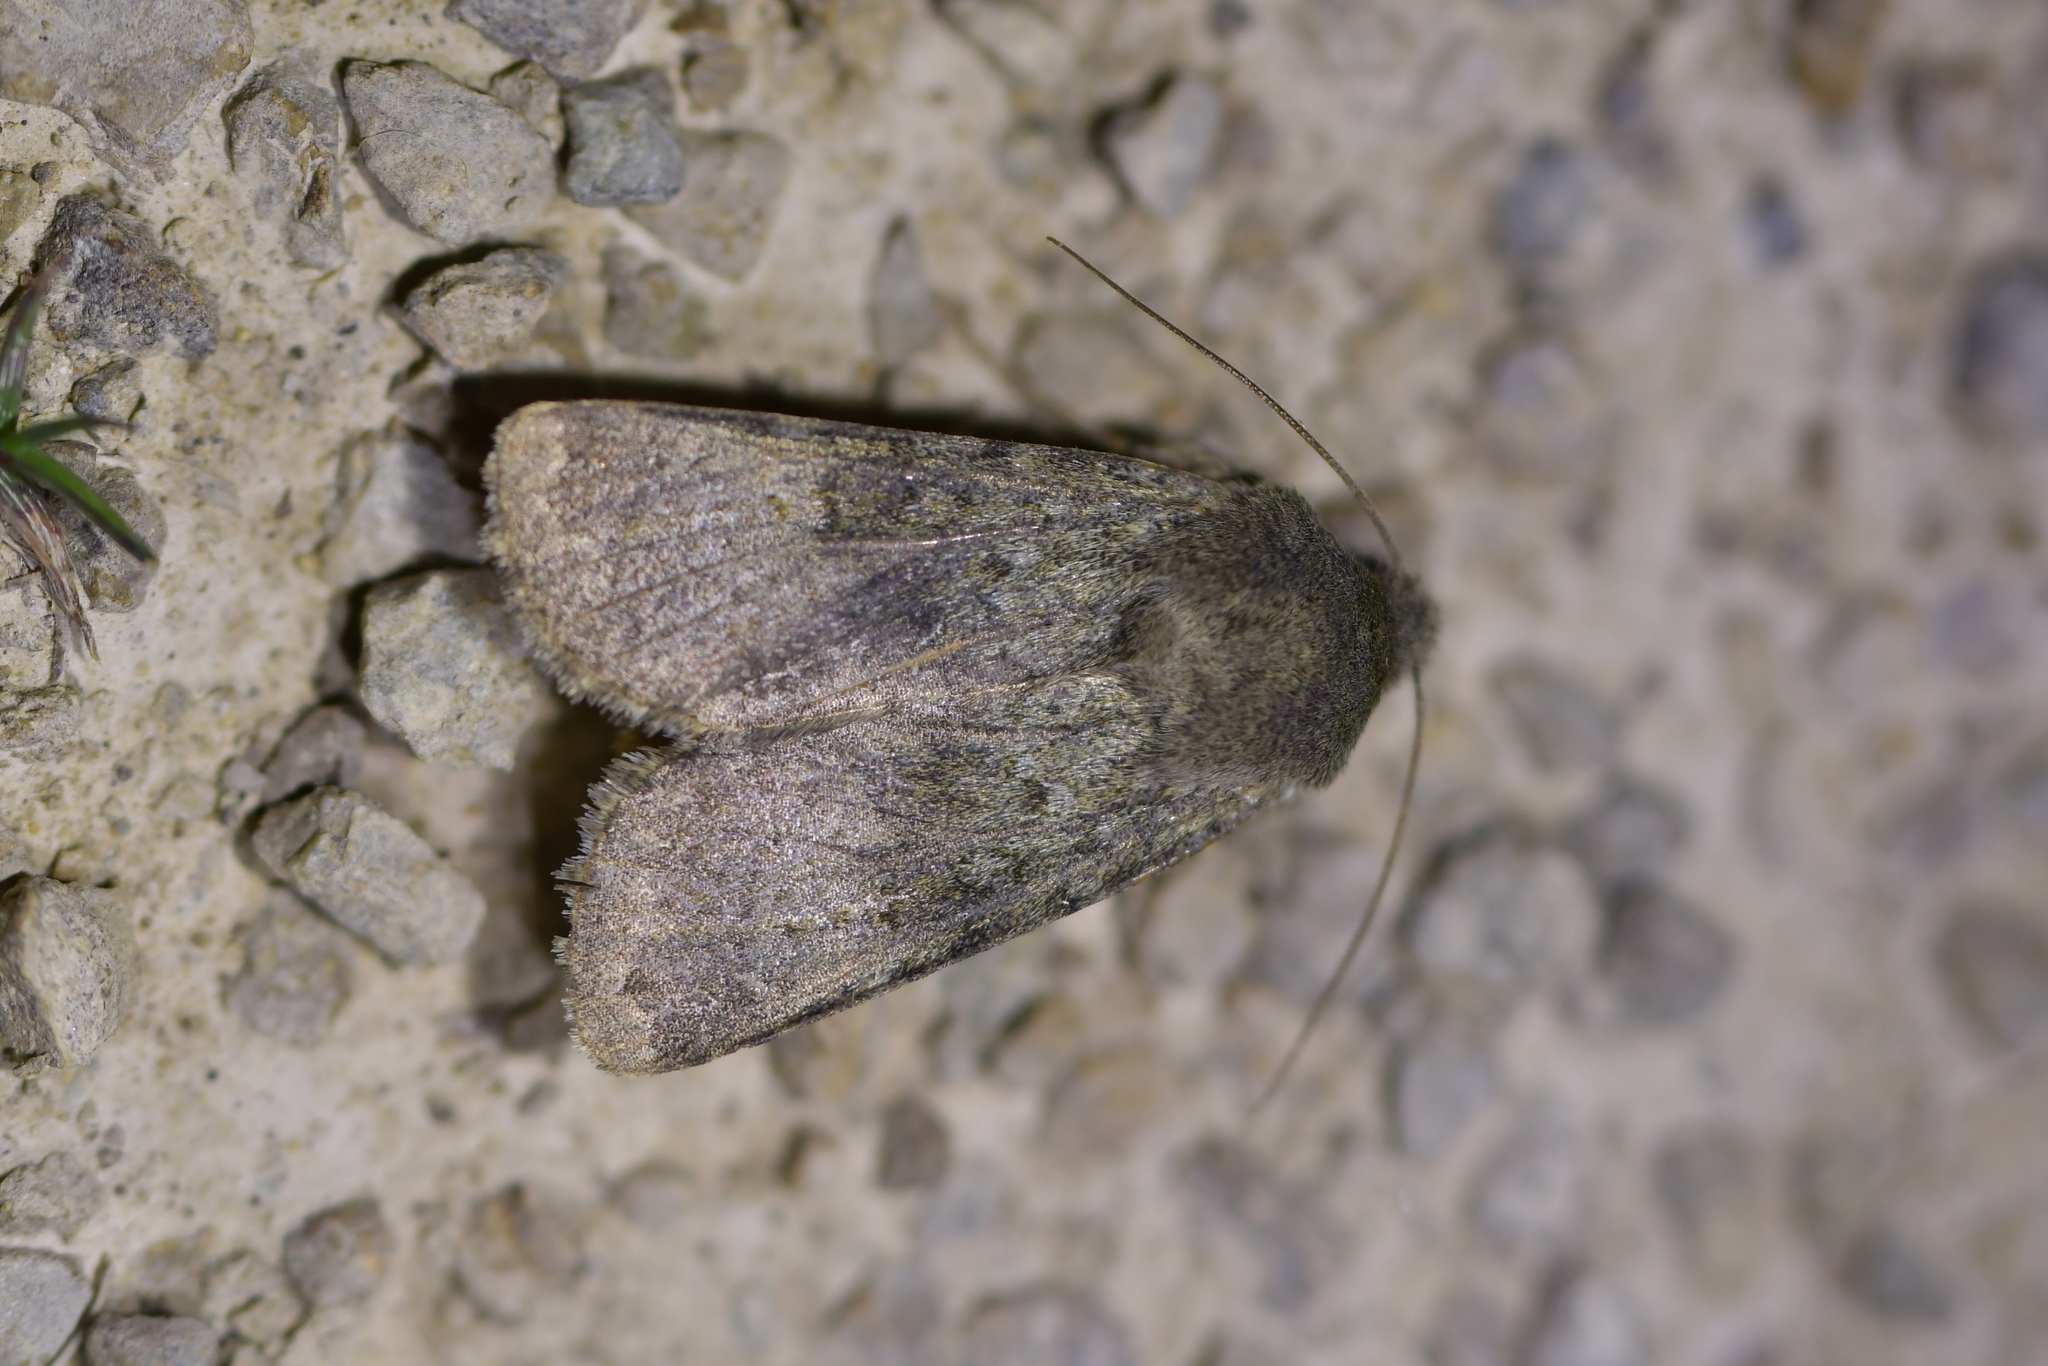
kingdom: Animalia
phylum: Arthropoda
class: Insecta
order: Lepidoptera
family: Noctuidae
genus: Ichneutica
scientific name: Ichneutica moderata
